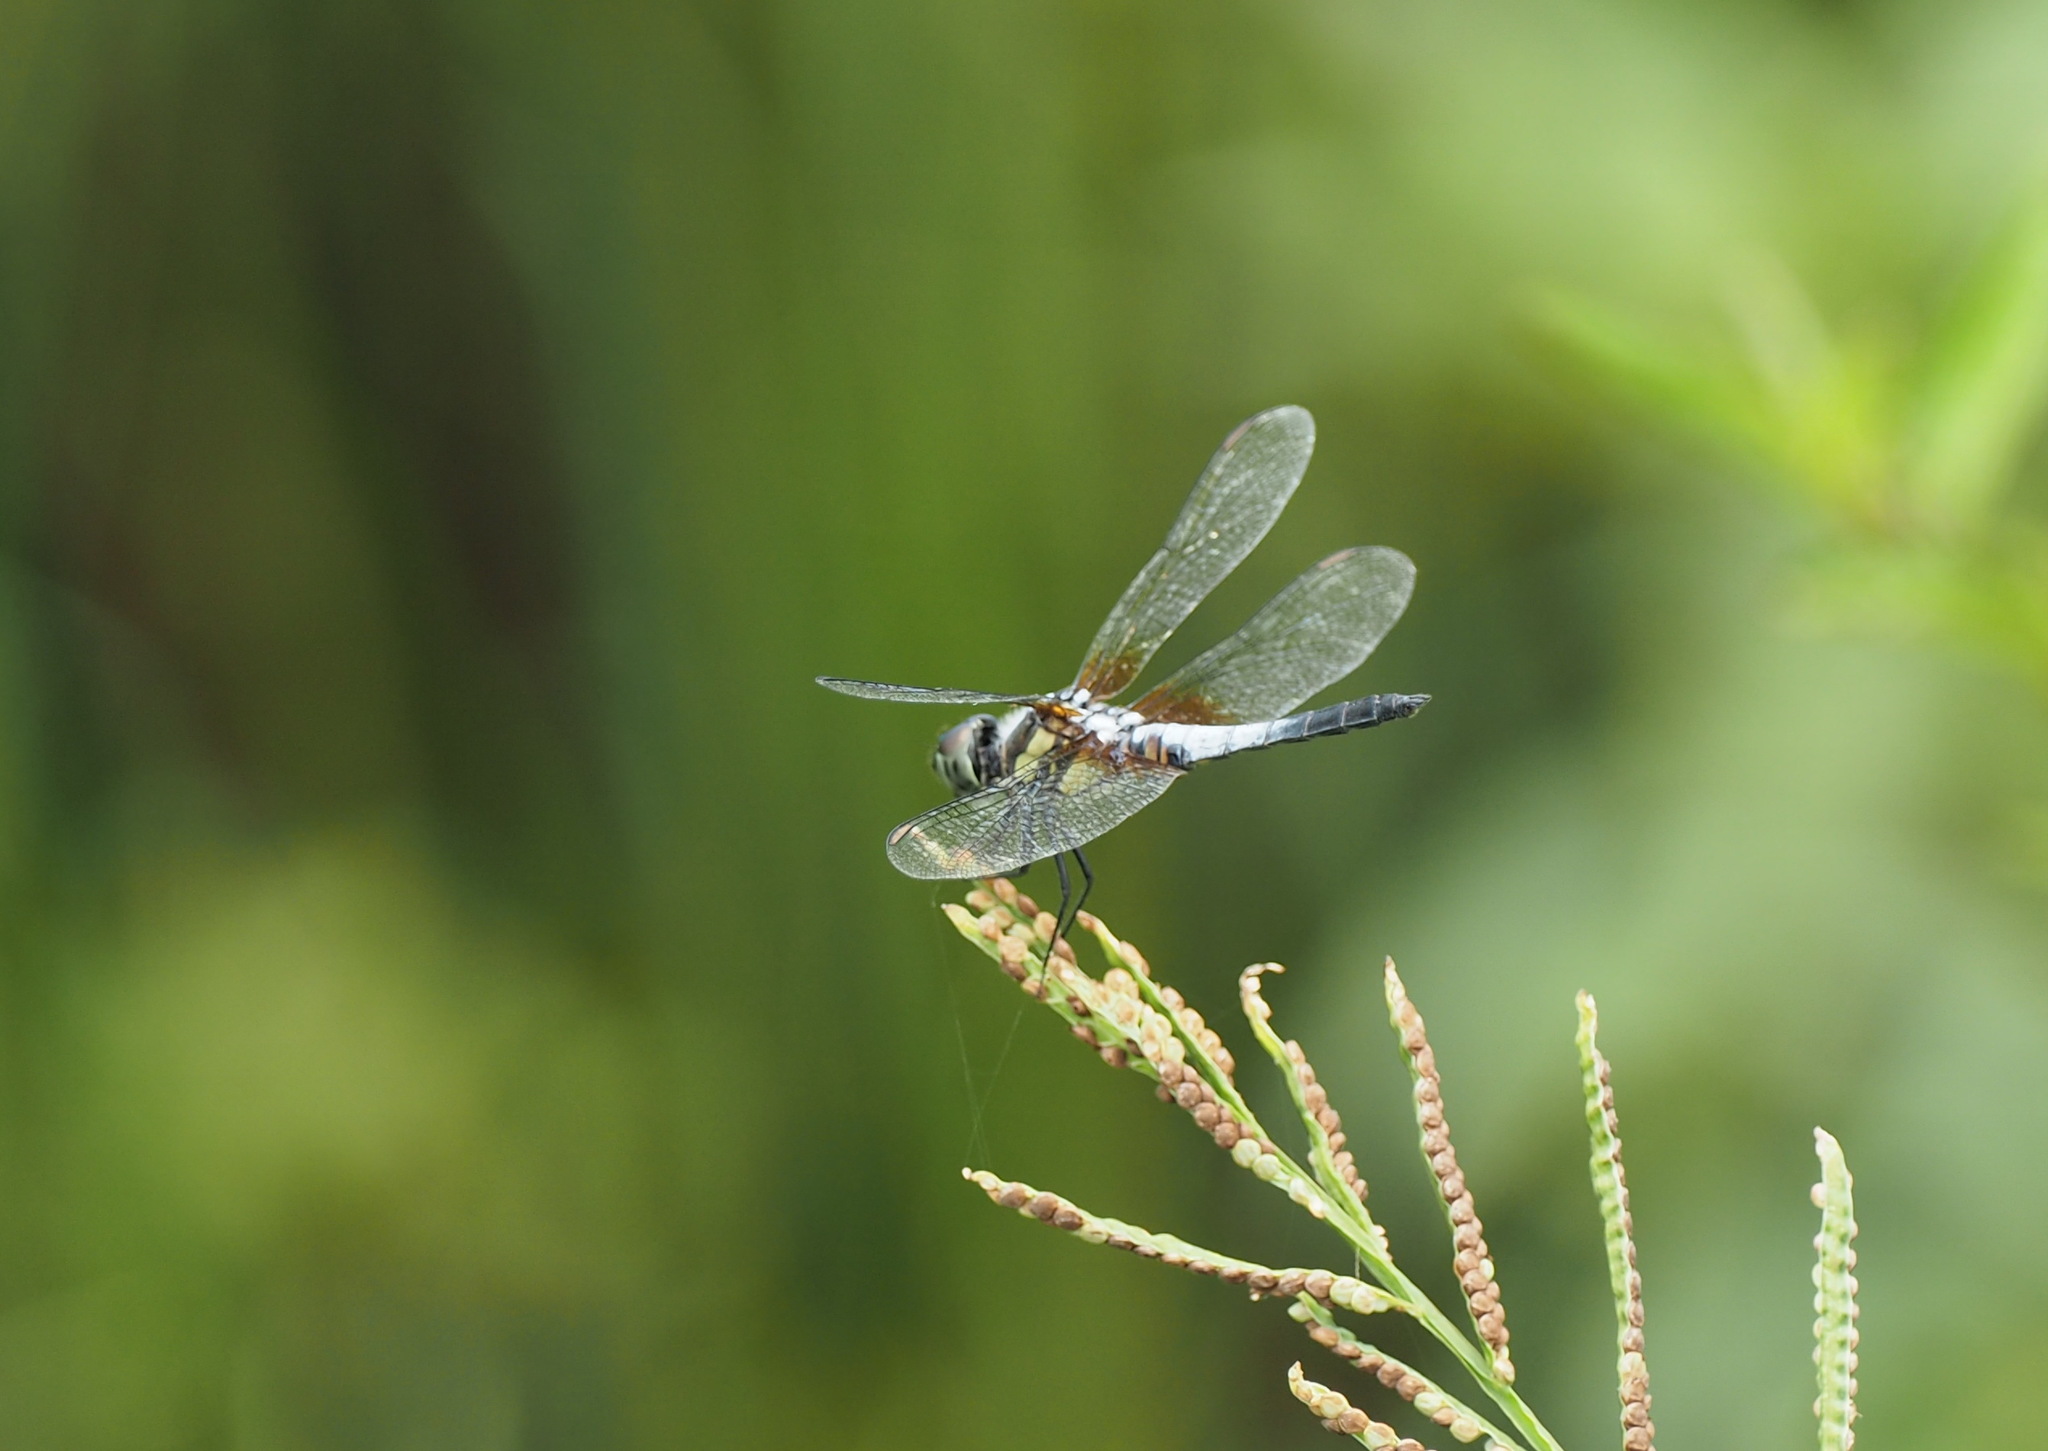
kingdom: Animalia
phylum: Arthropoda
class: Insecta
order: Odonata
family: Libellulidae
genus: Brachydiplax
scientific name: Brachydiplax chalybea
